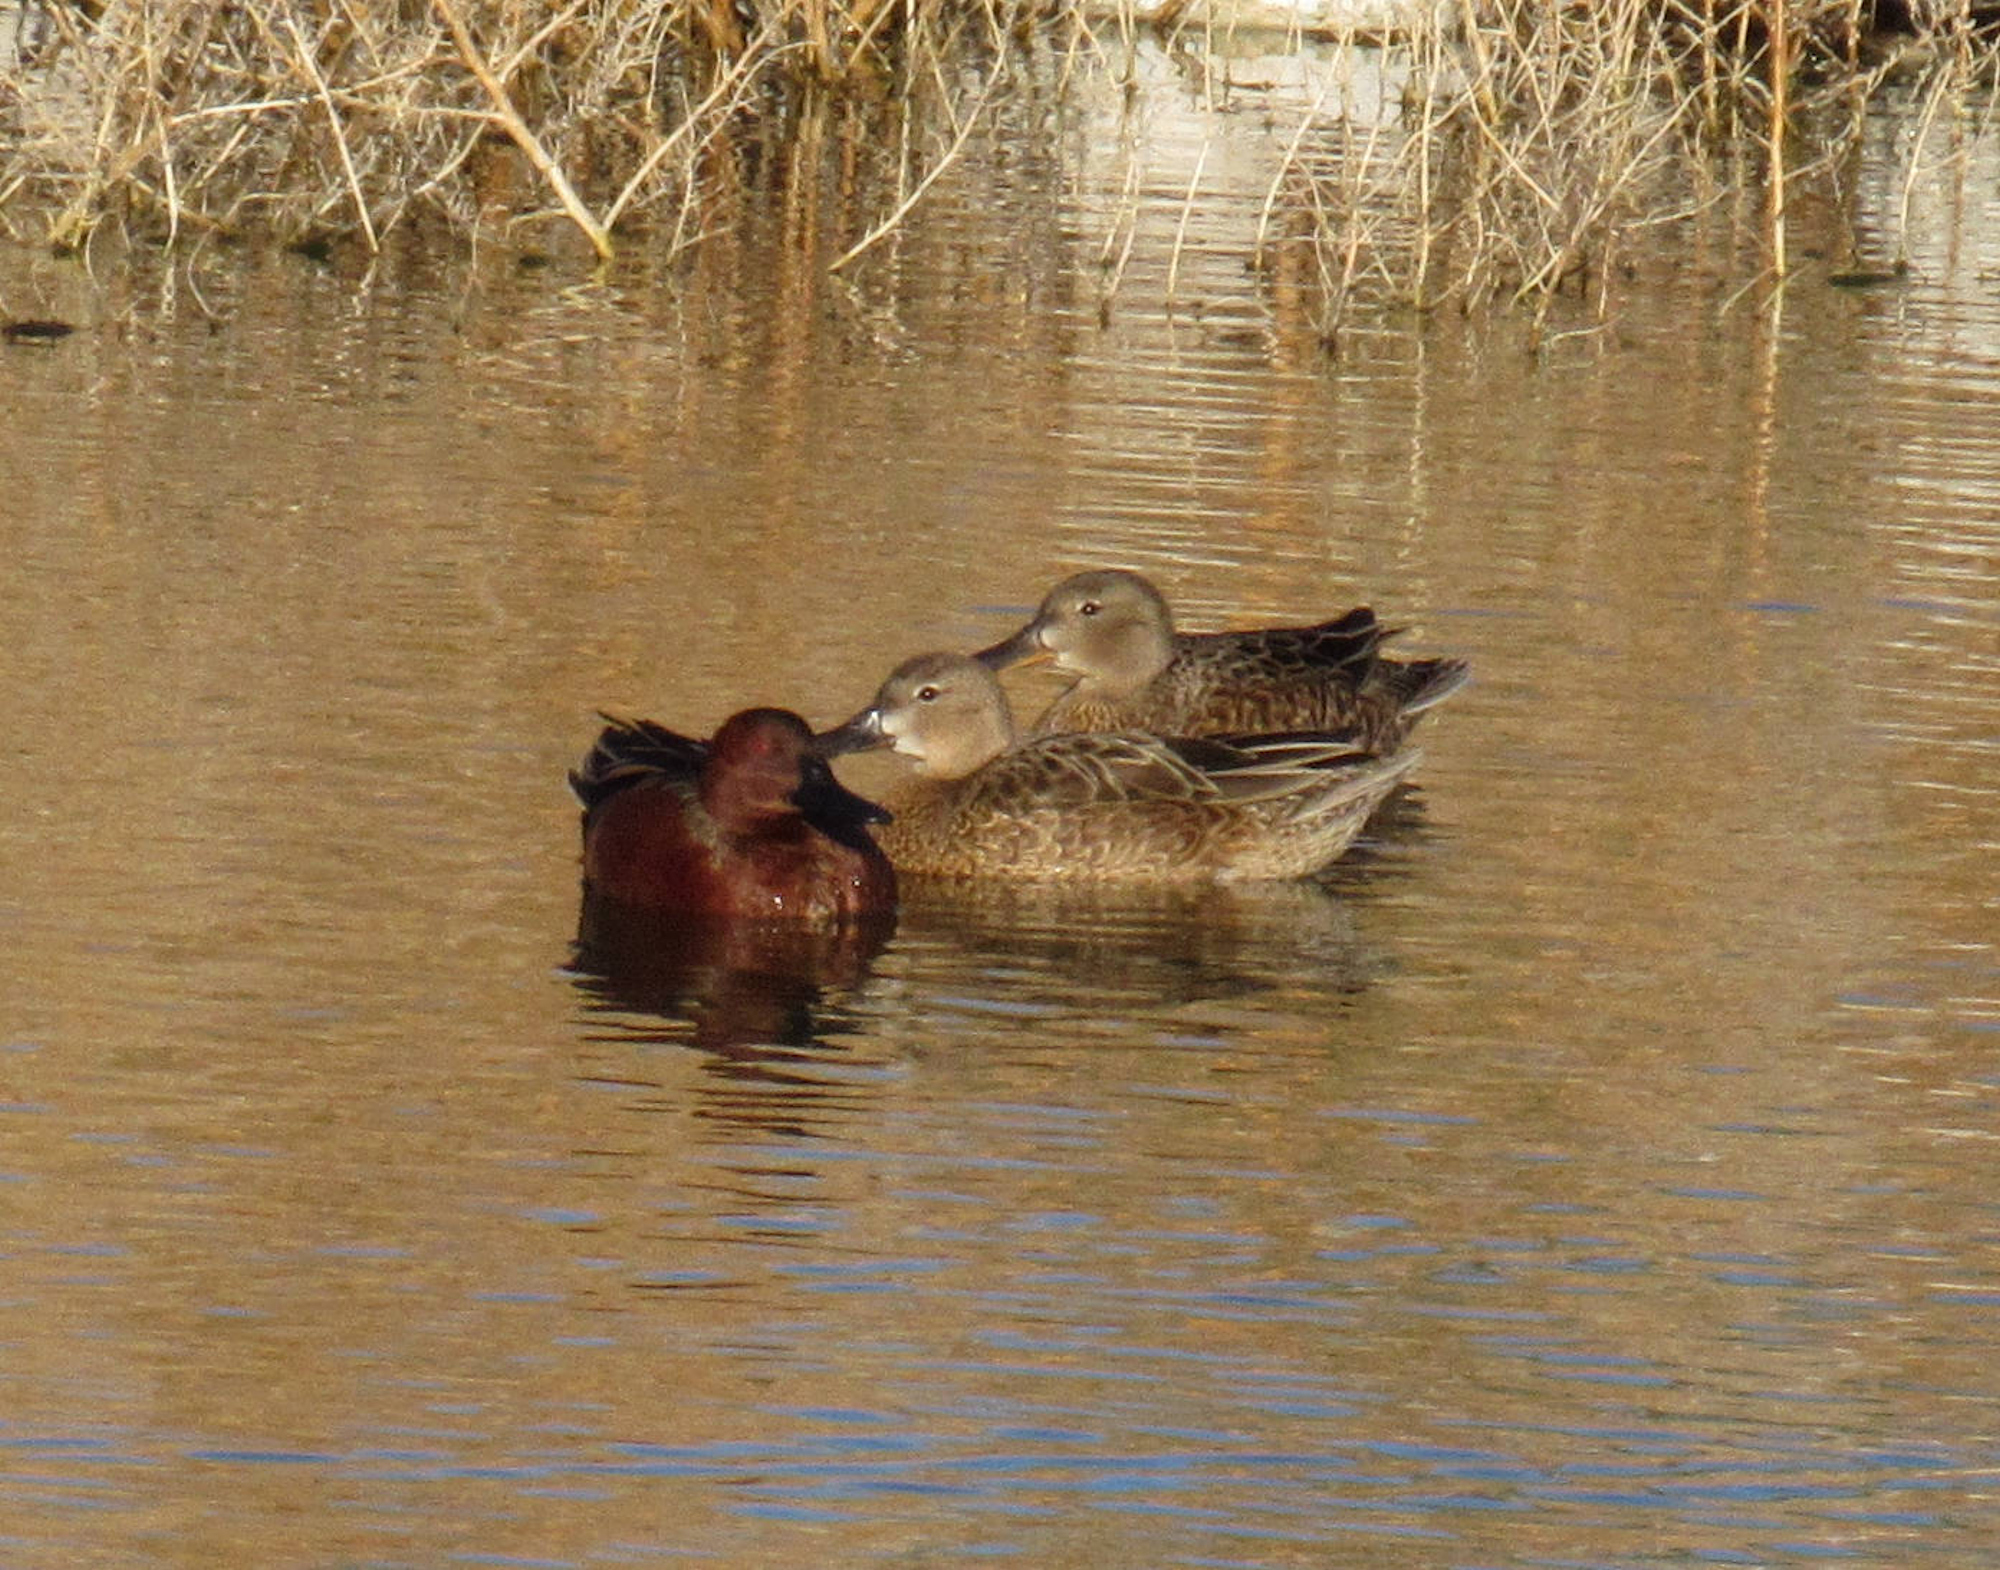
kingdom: Animalia
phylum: Chordata
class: Aves
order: Anseriformes
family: Anatidae
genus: Spatula
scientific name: Spatula cyanoptera
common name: Cinnamon teal
